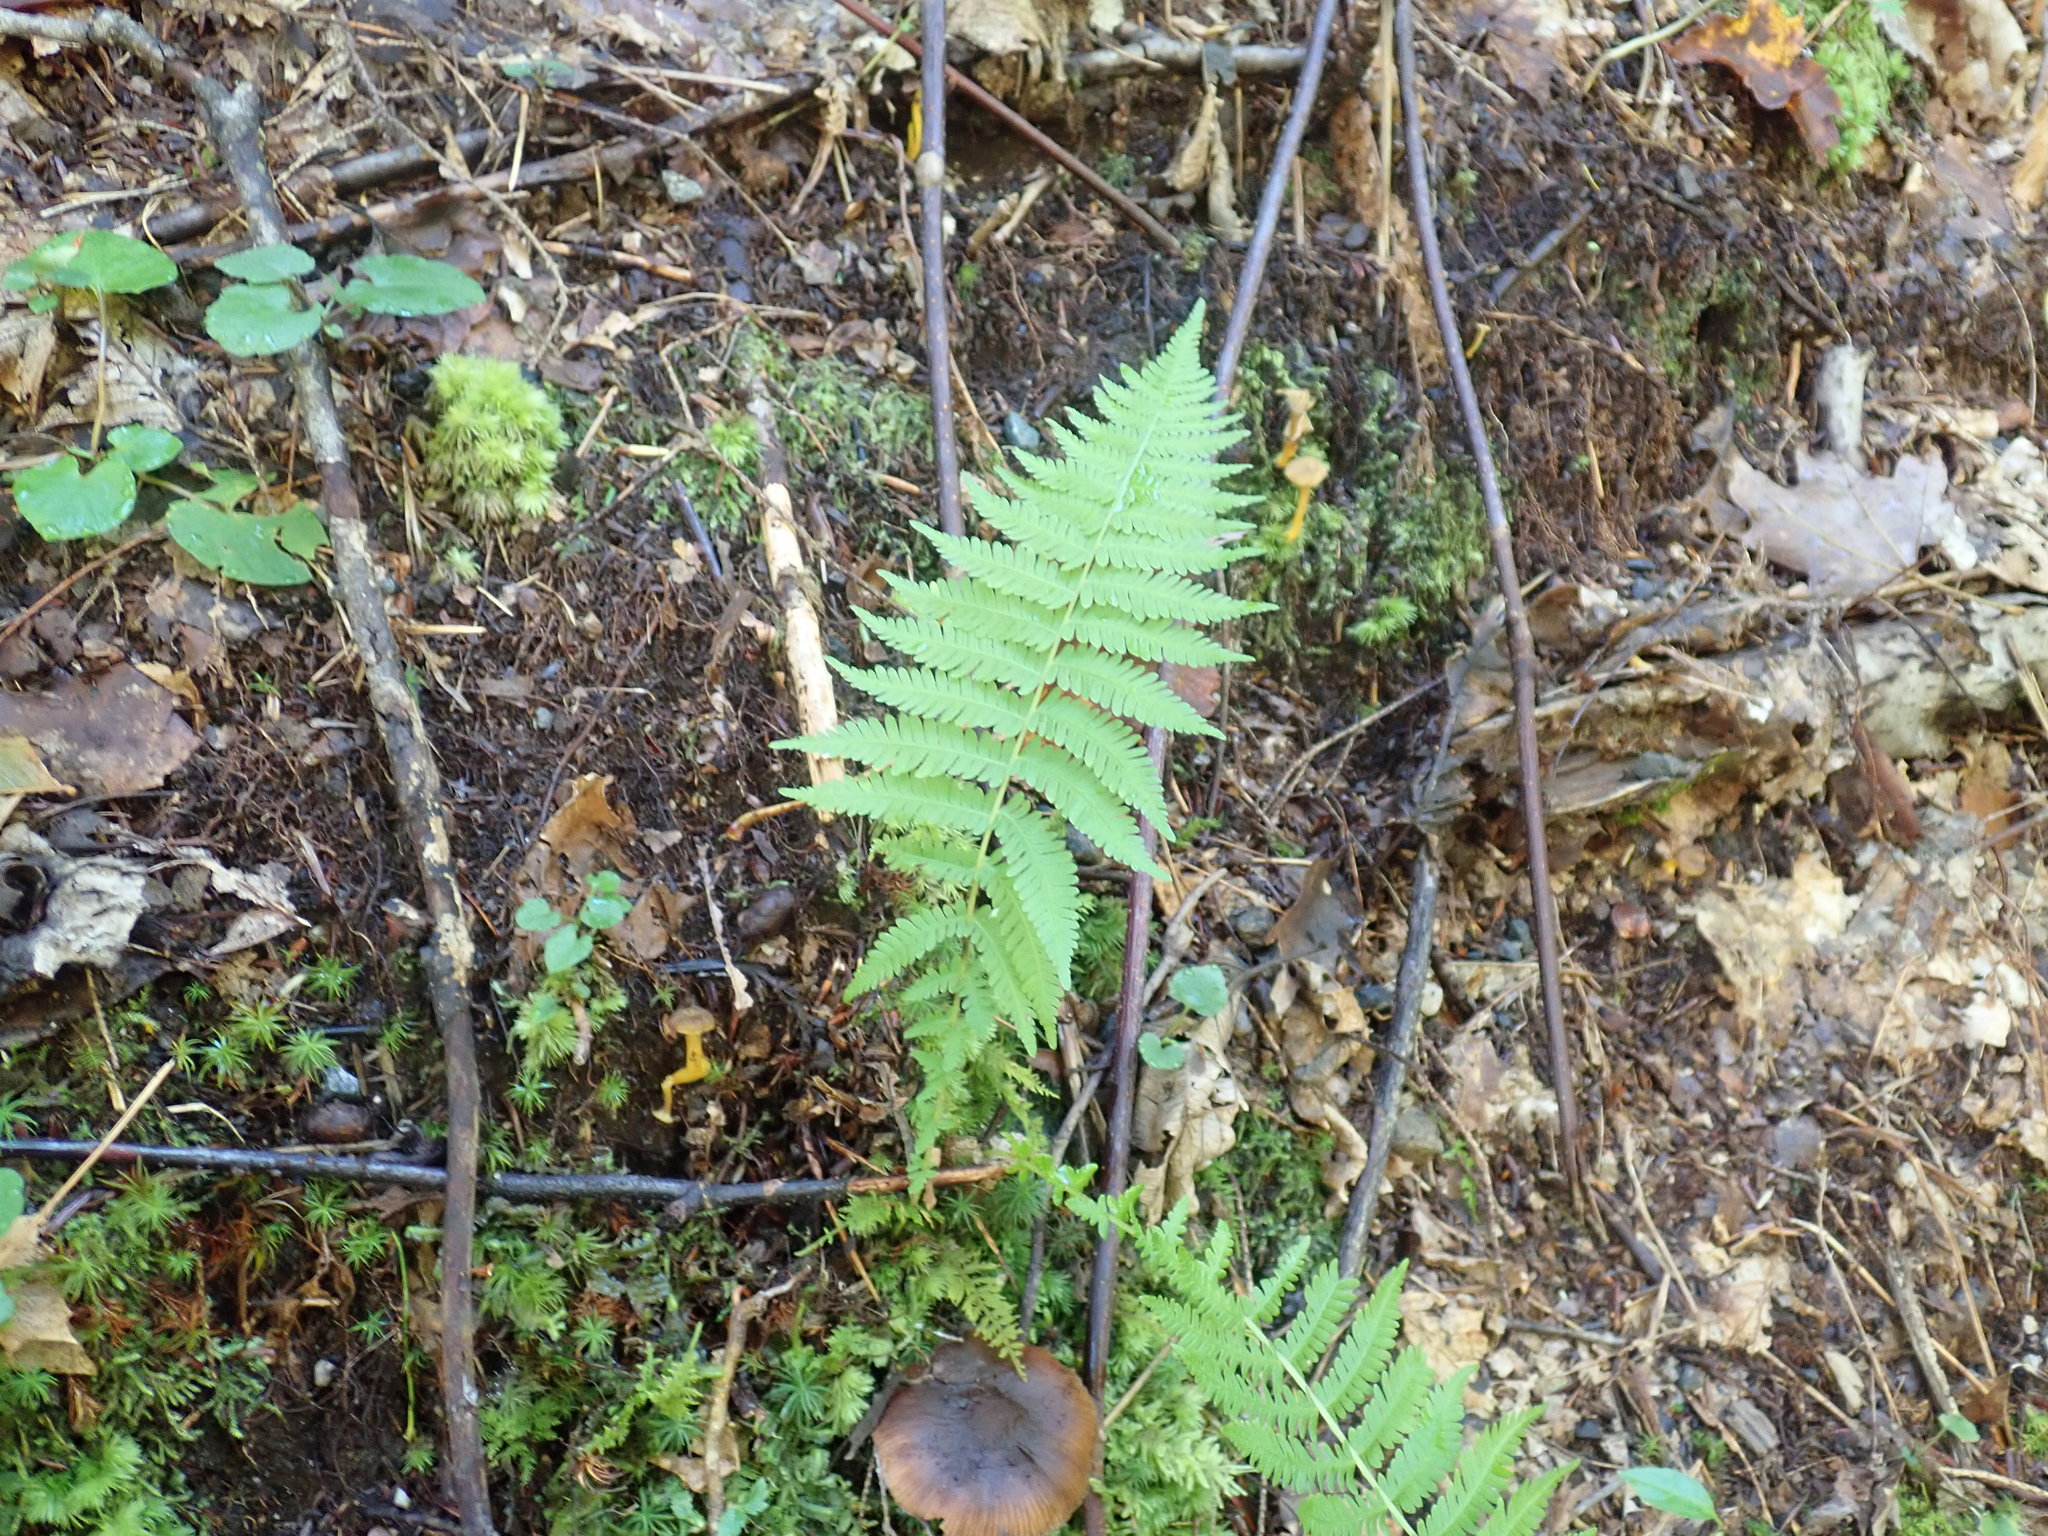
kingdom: Plantae
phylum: Tracheophyta
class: Polypodiopsida
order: Polypodiales
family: Thelypteridaceae
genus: Amauropelta
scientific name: Amauropelta noveboracensis
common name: New york fern
